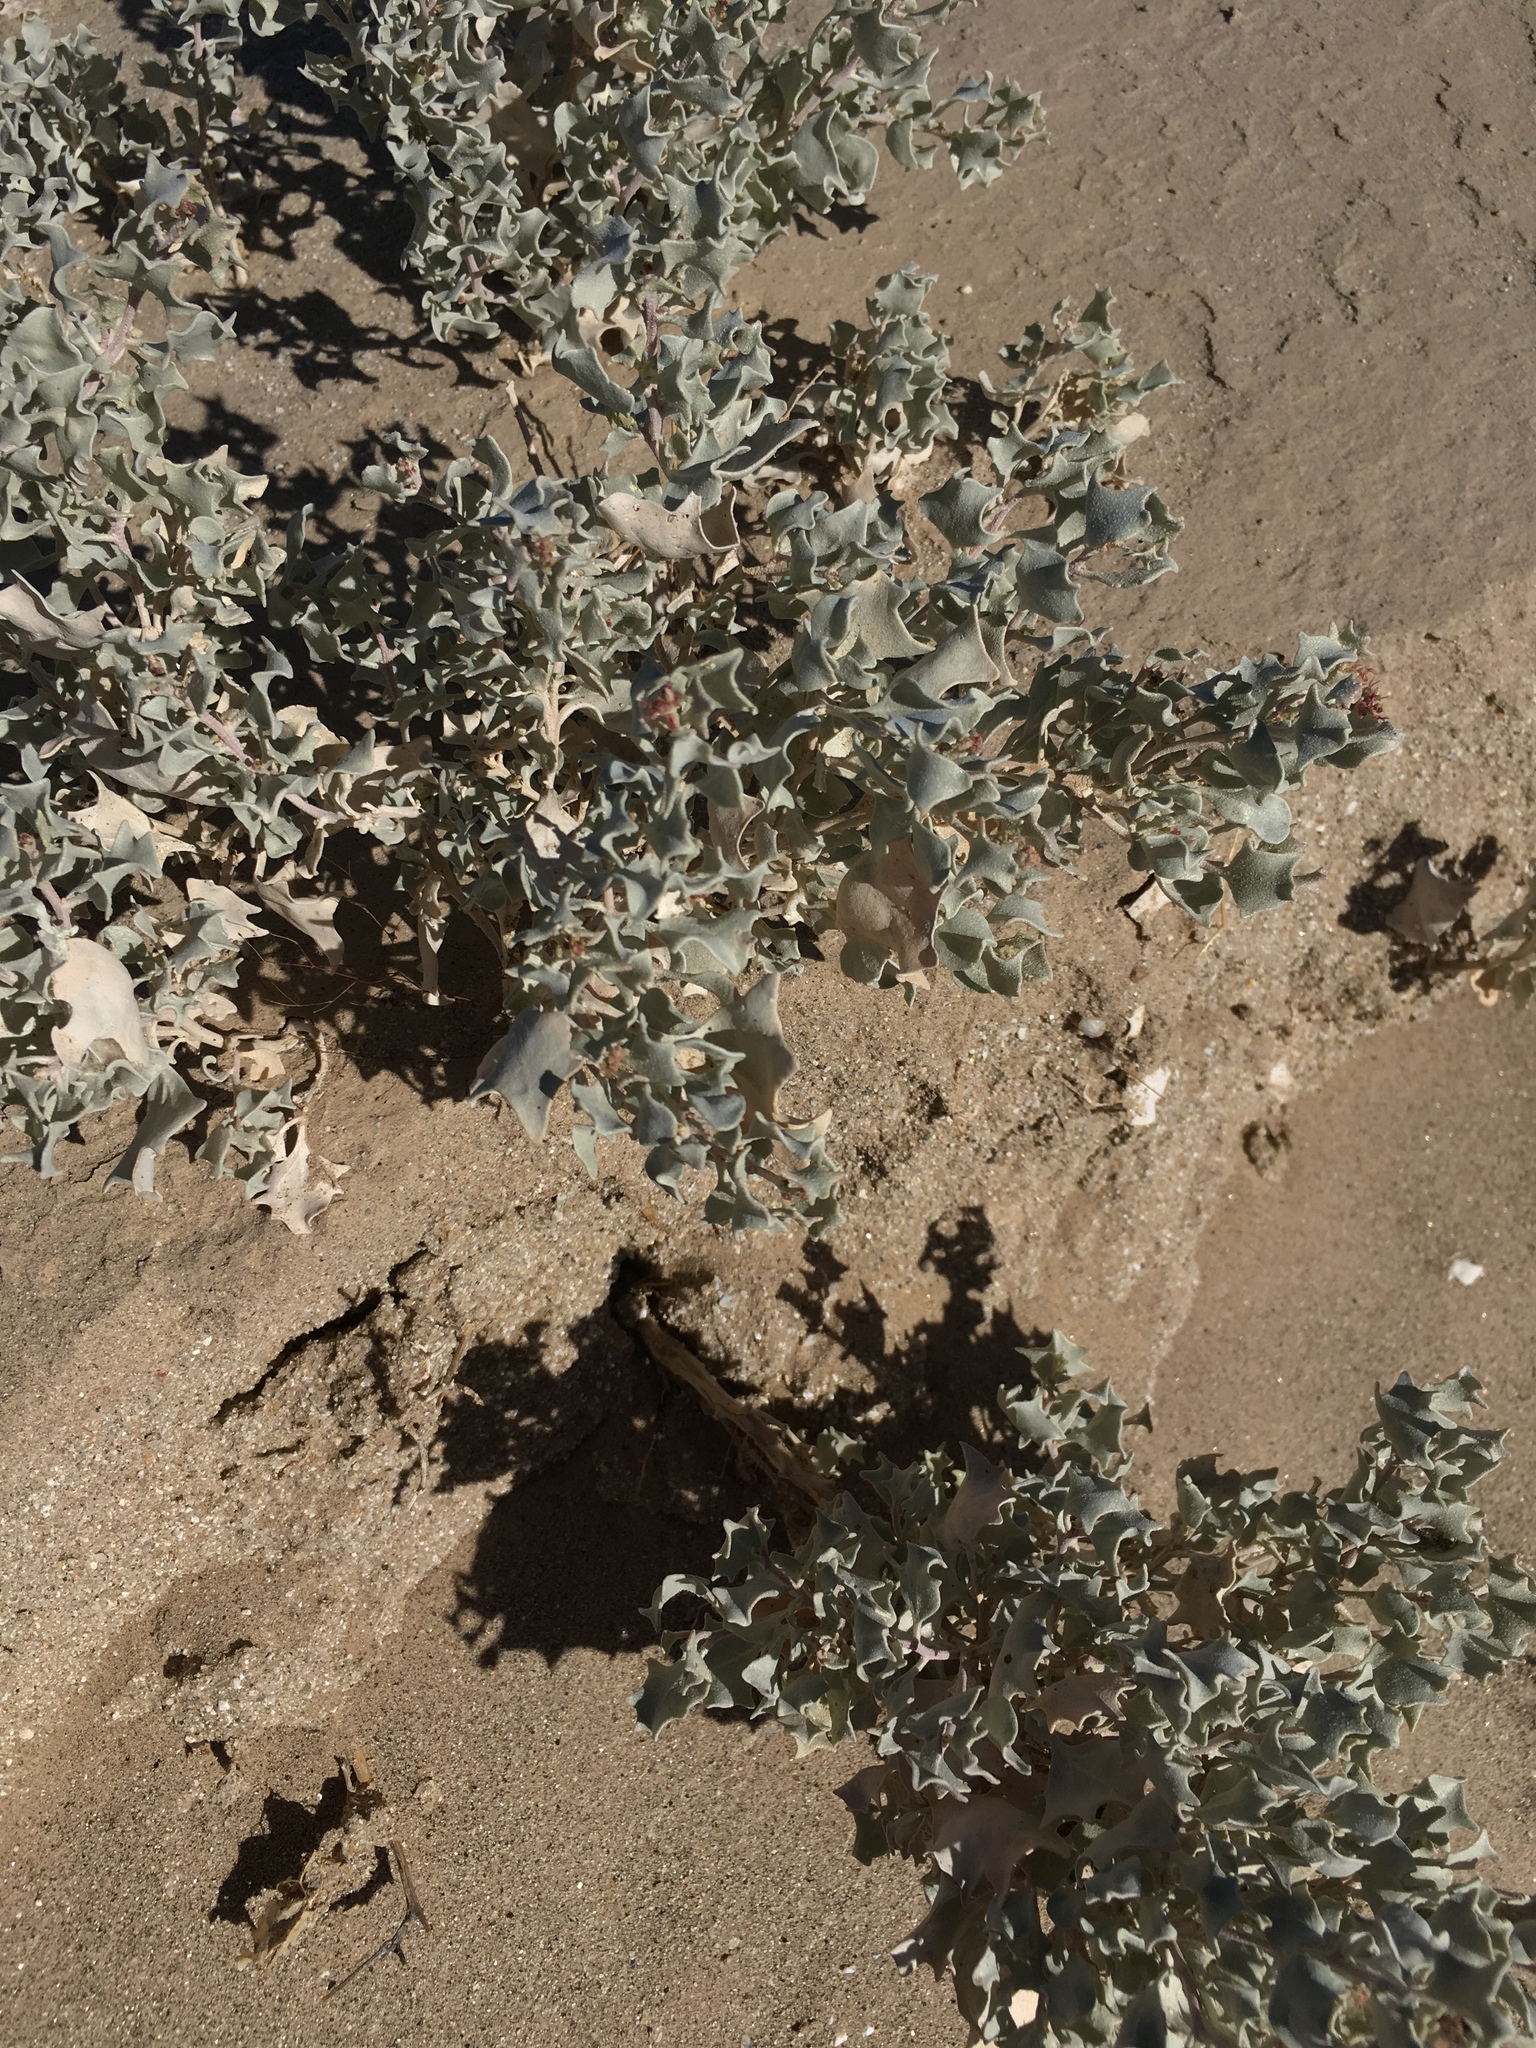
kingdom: Plantae
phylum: Tracheophyta
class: Magnoliopsida
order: Caryophyllales
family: Amaranthaceae
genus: Atriplex
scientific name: Atriplex hymenelytra
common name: Desert-holly
